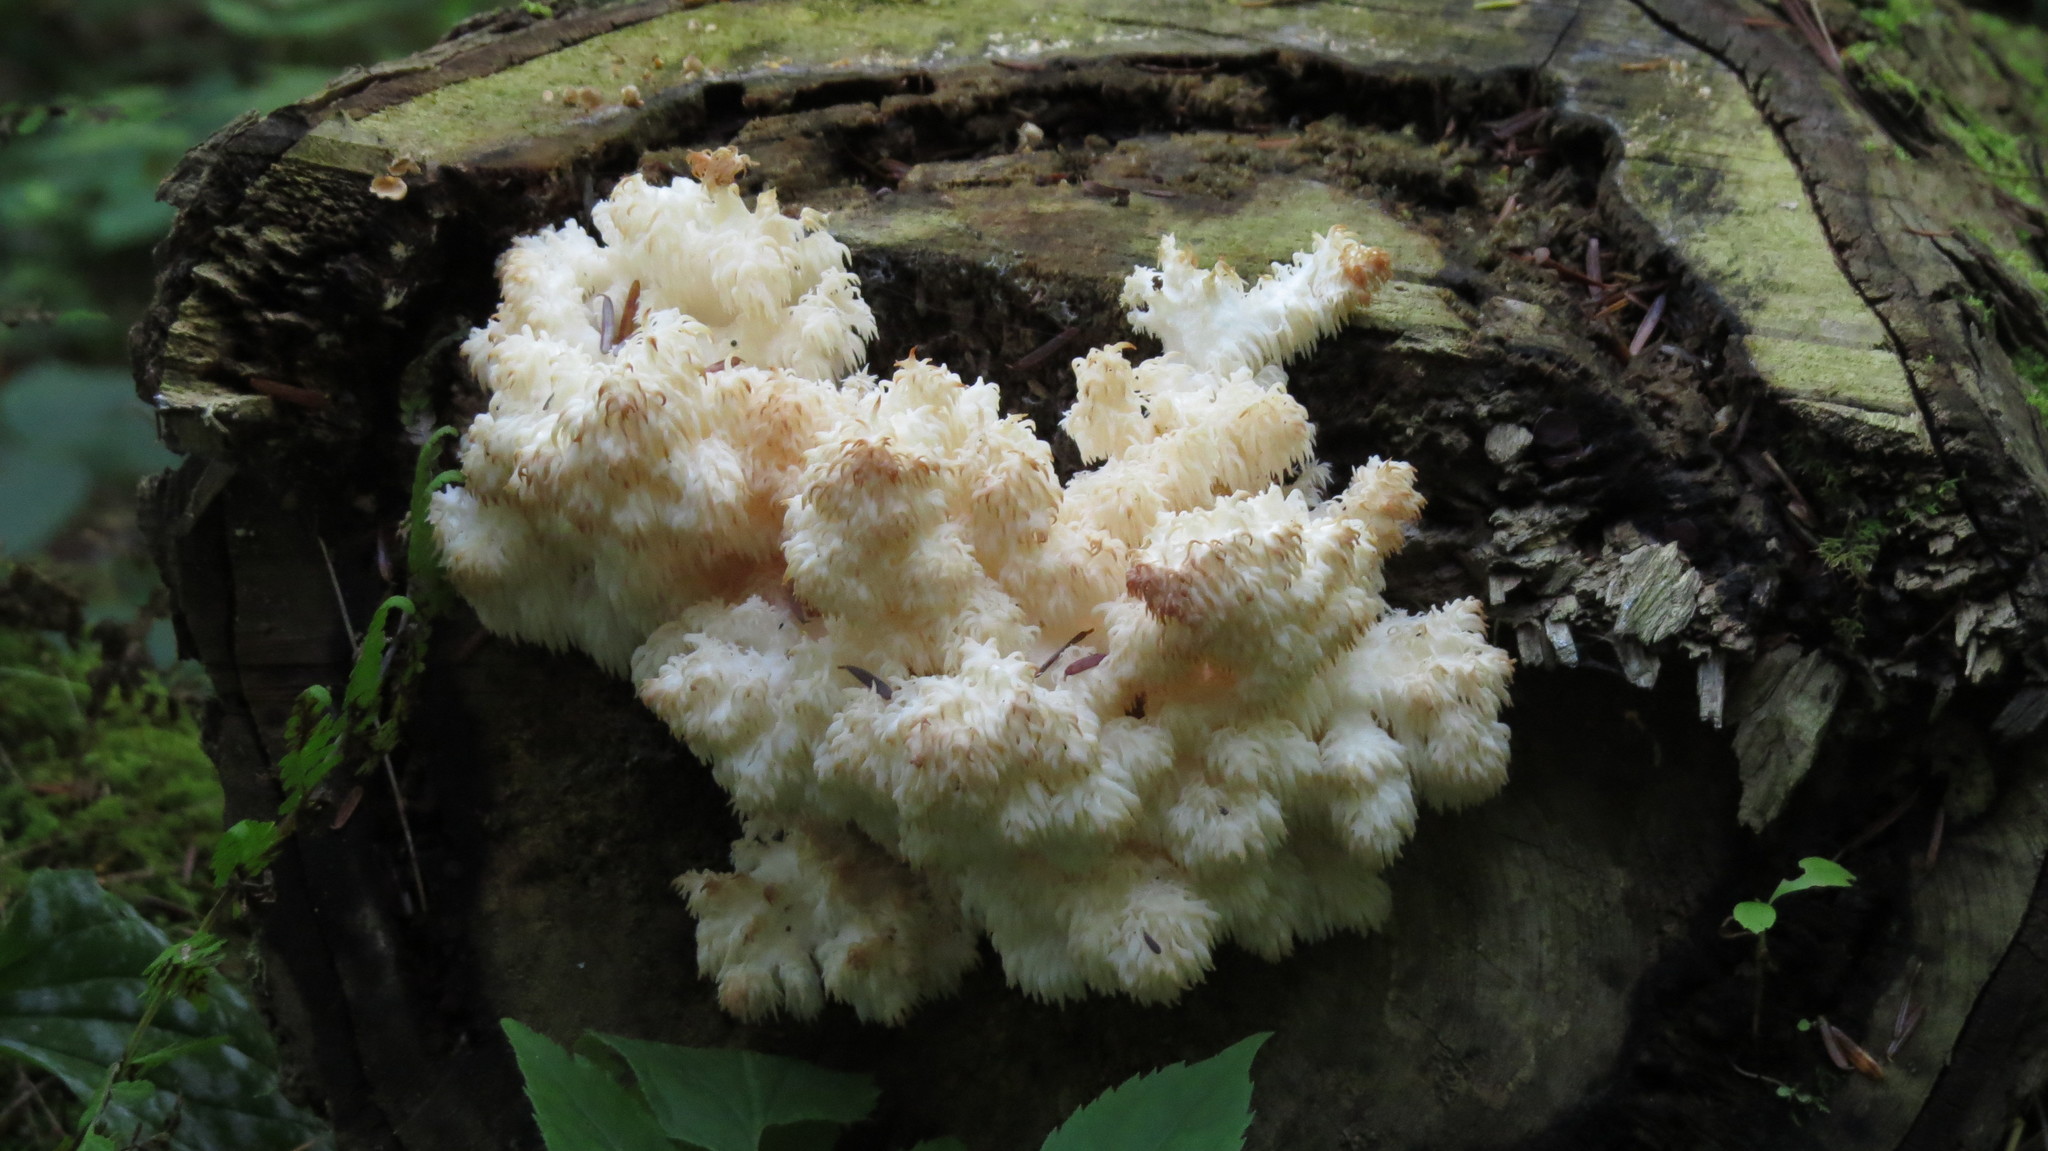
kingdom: Fungi
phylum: Basidiomycota
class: Agaricomycetes
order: Russulales
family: Hericiaceae
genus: Hericium
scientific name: Hericium coralloides
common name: Coral tooth
